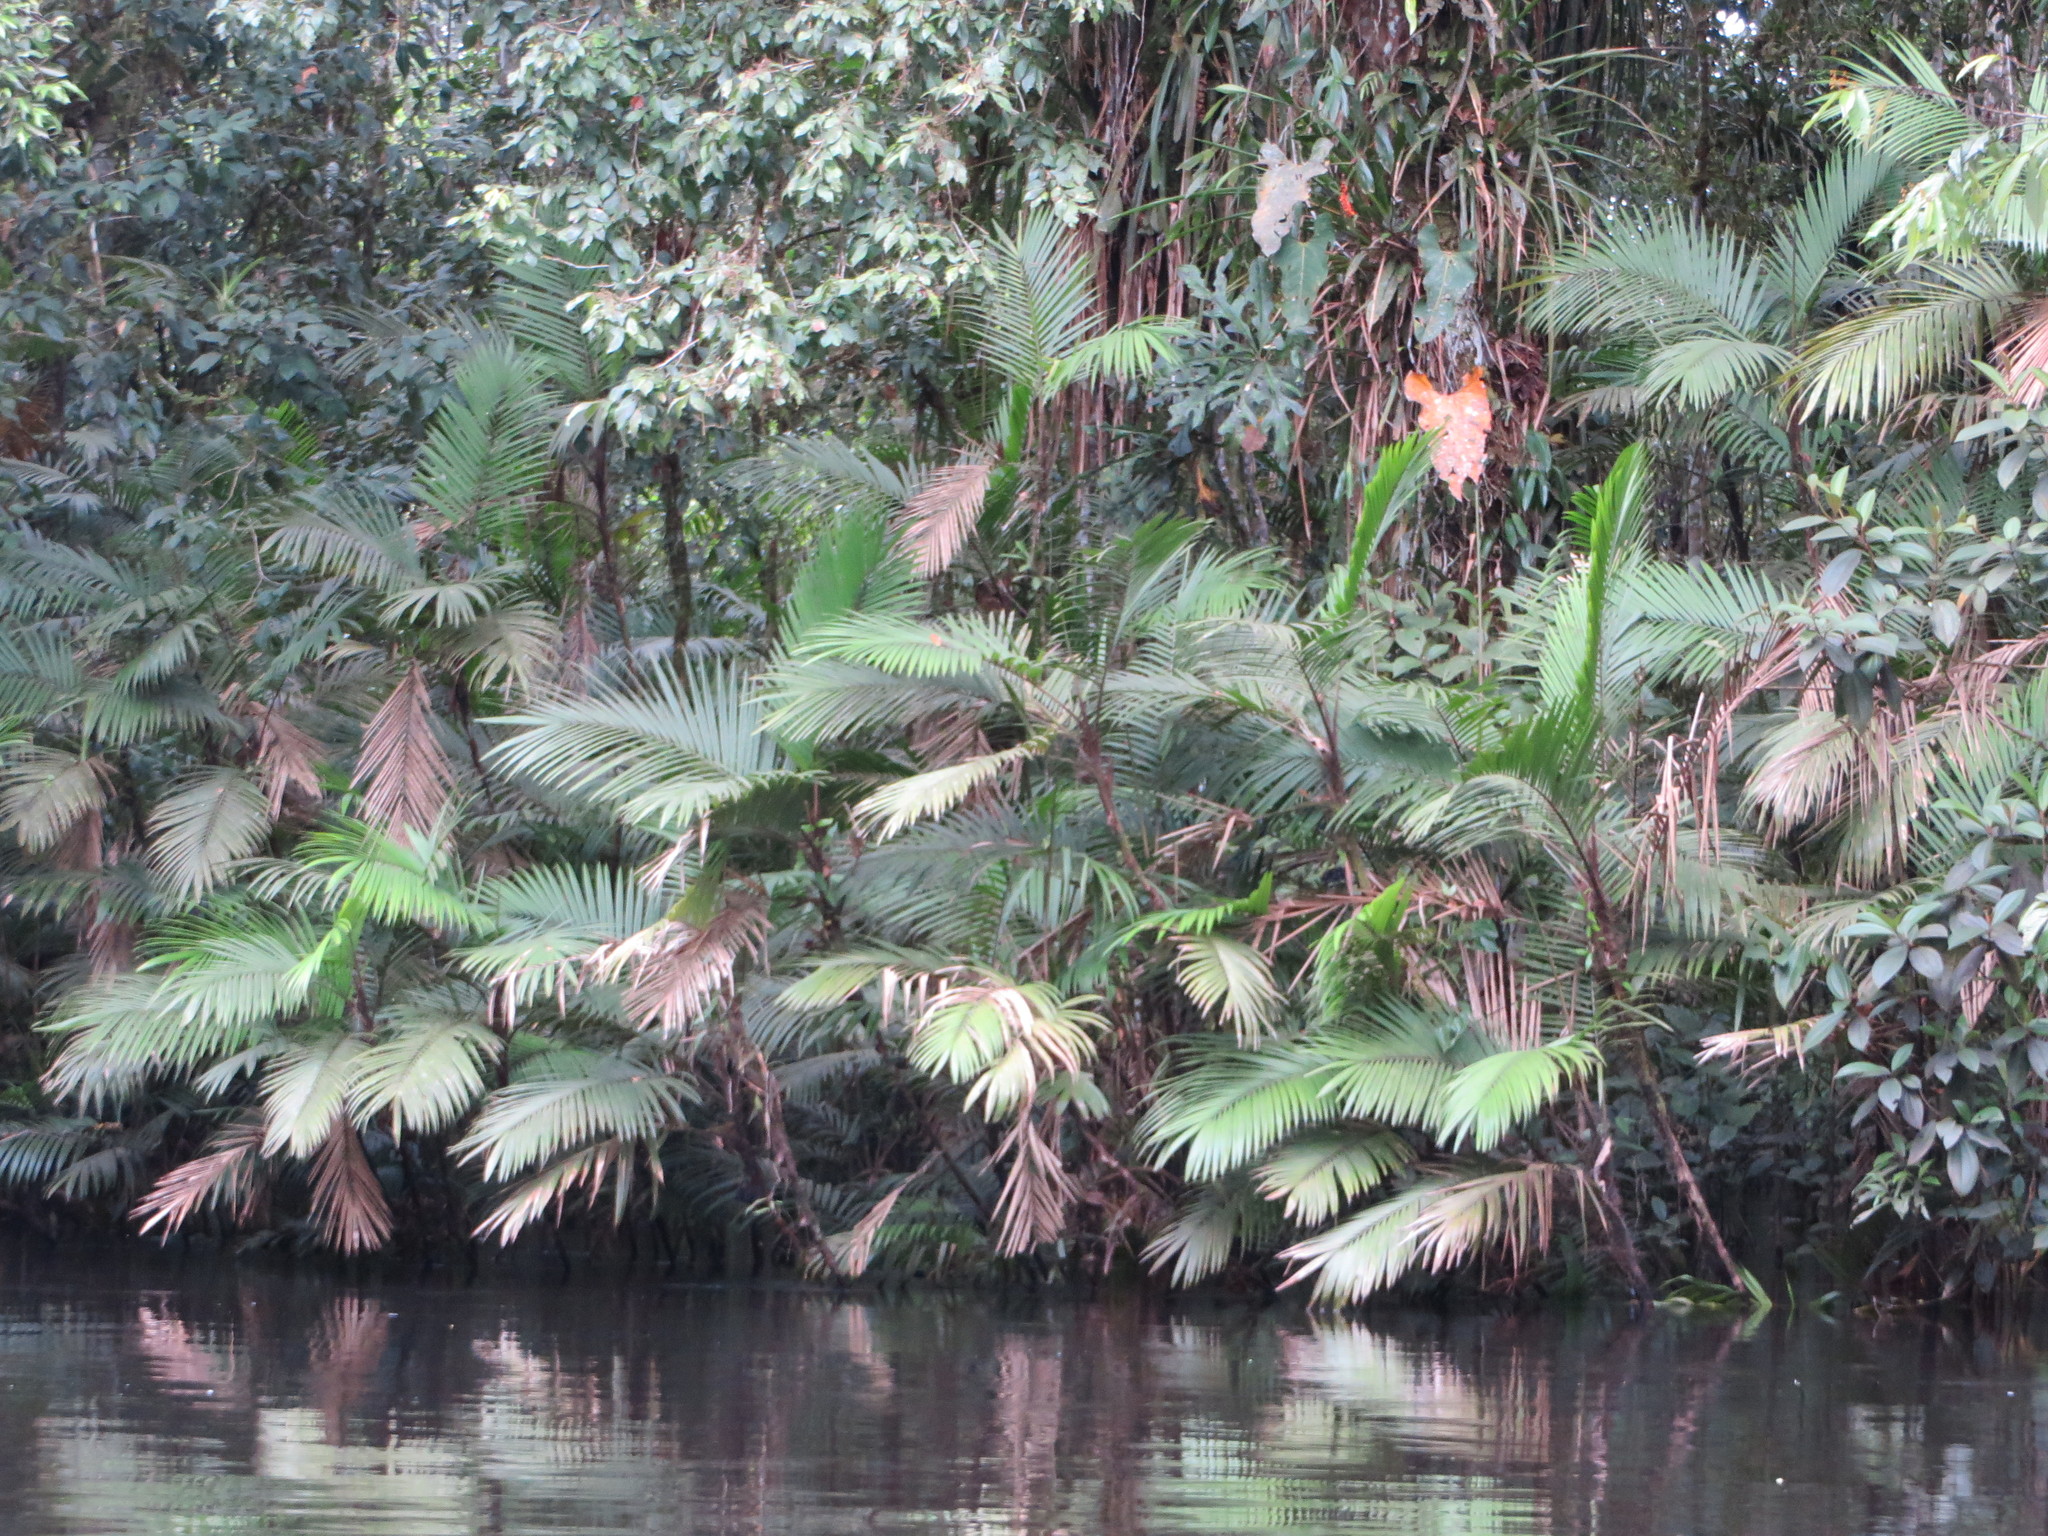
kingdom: Plantae
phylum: Tracheophyta
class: Liliopsida
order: Arecales
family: Arecaceae
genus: Bactris
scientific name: Bactris concinna
